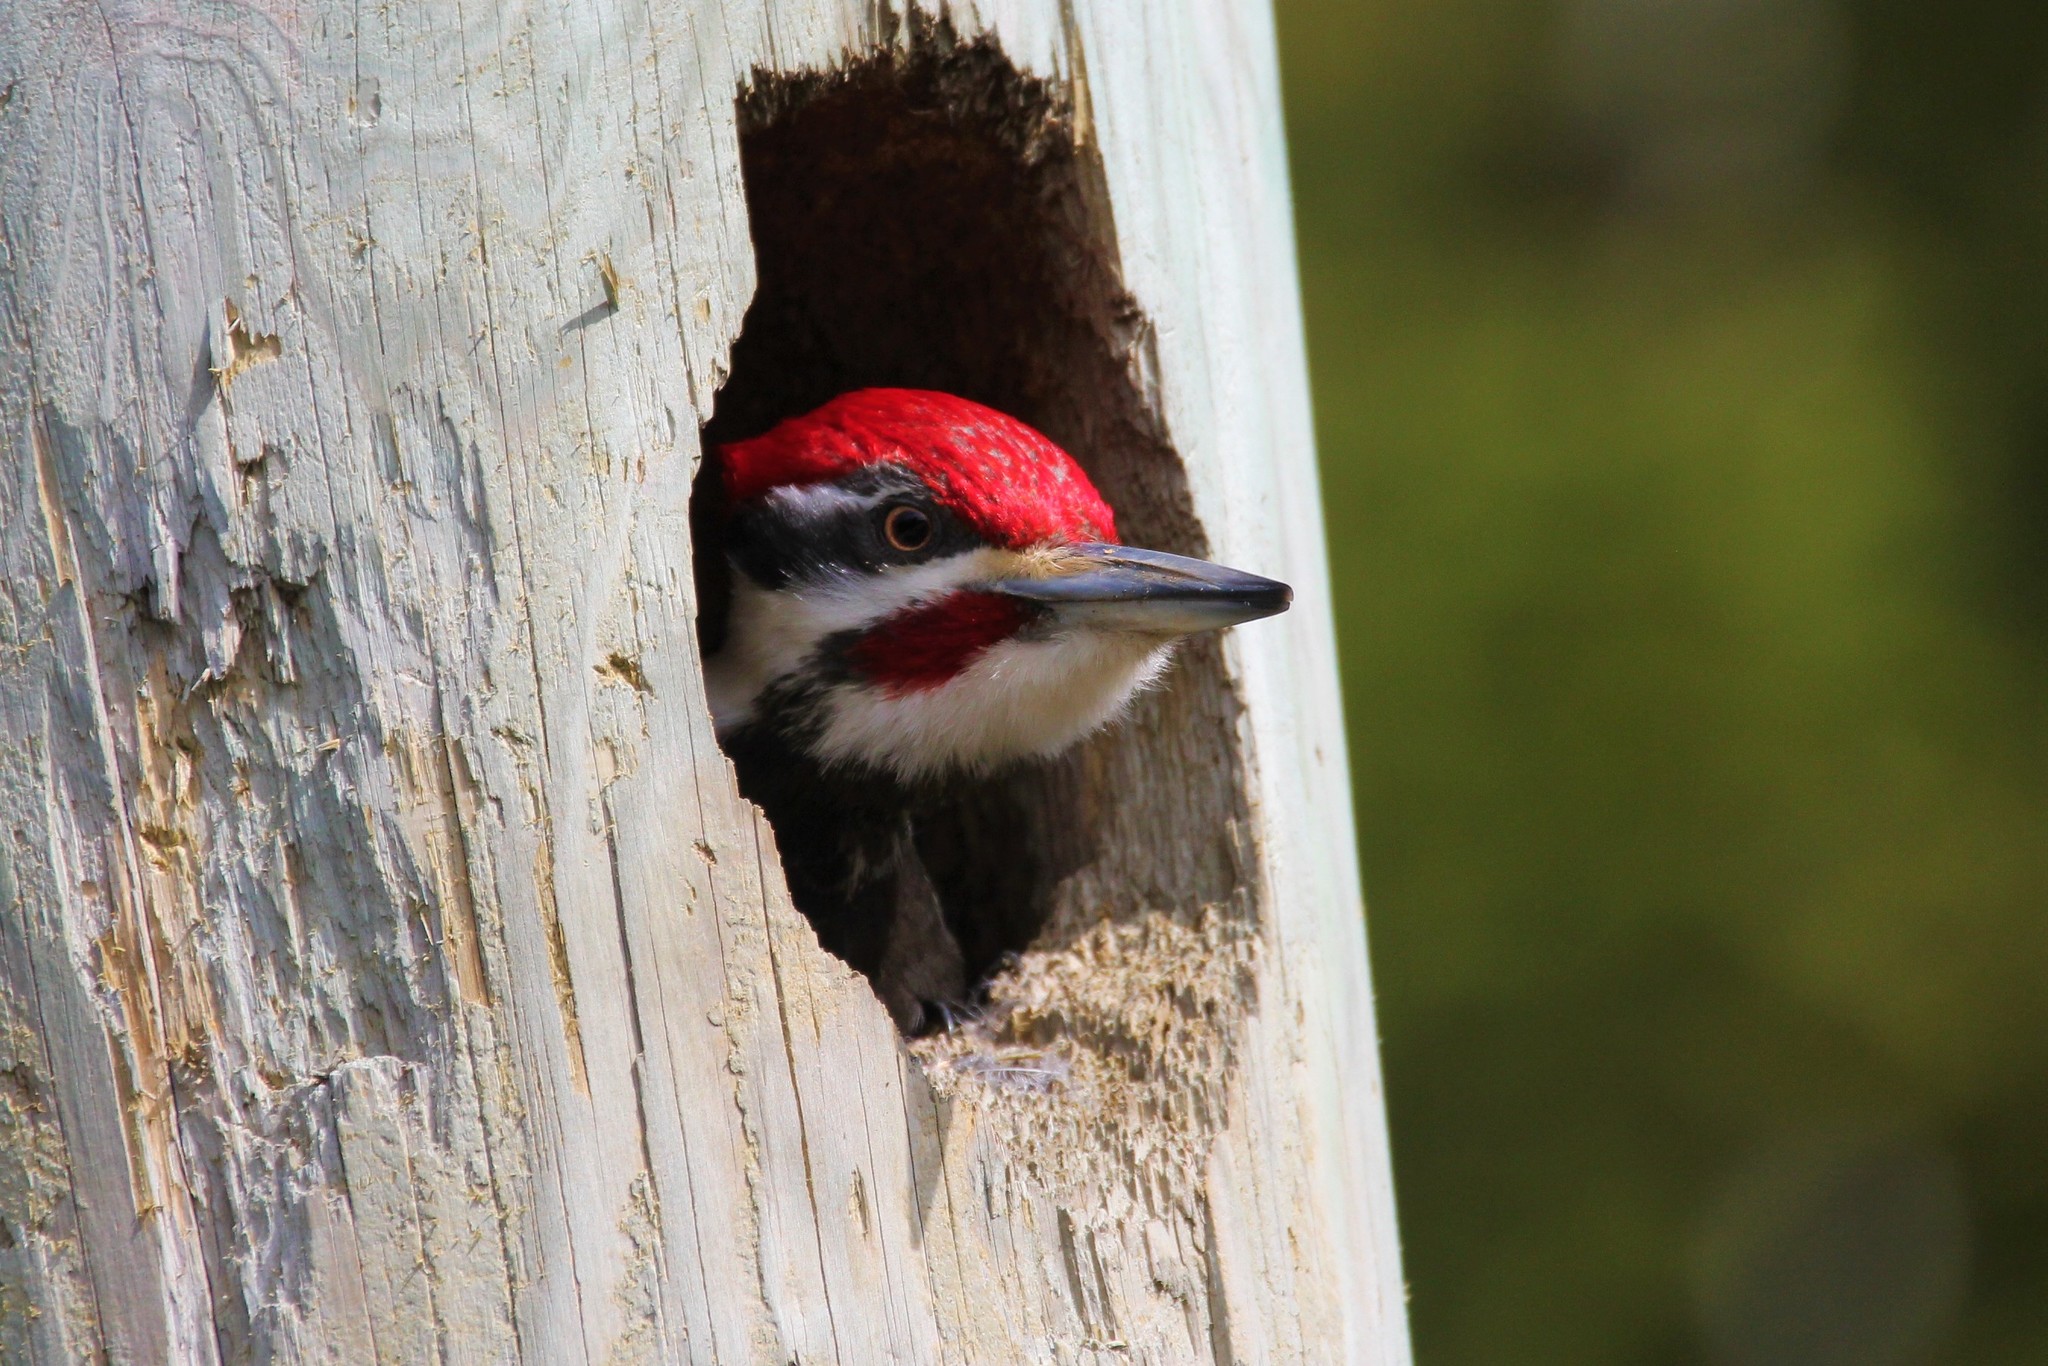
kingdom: Animalia
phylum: Chordata
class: Aves
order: Piciformes
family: Picidae
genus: Dryocopus
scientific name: Dryocopus pileatus
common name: Pileated woodpecker
